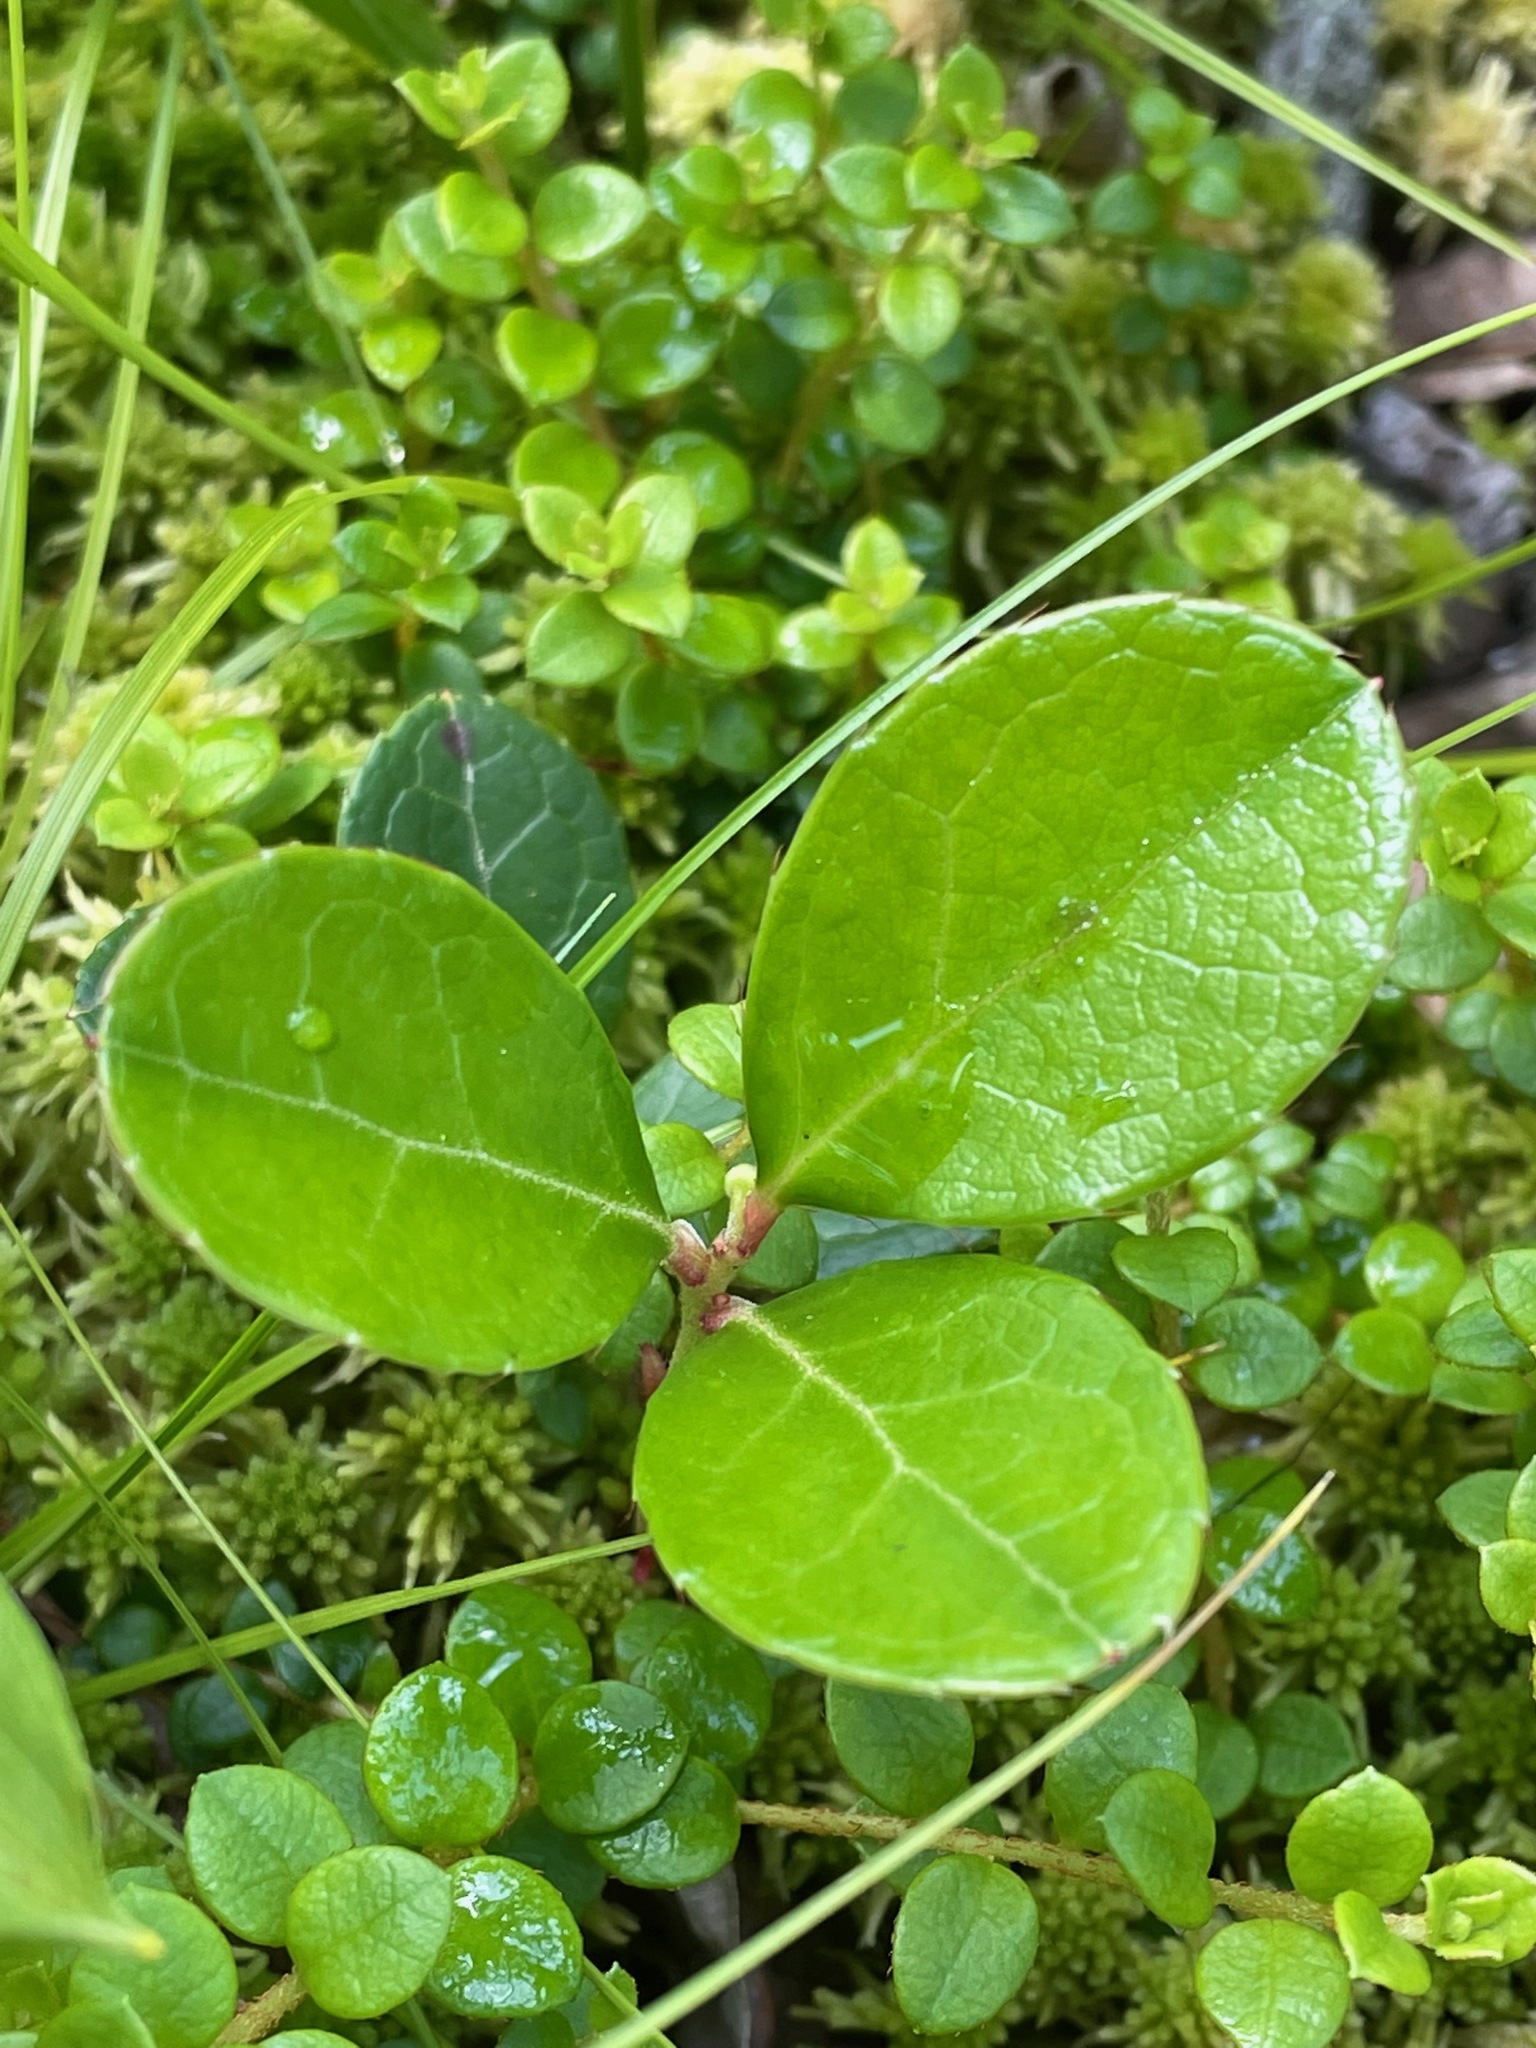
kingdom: Plantae
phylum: Tracheophyta
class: Magnoliopsida
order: Ericales
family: Ericaceae
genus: Gaultheria
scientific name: Gaultheria procumbens
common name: Checkerberry
